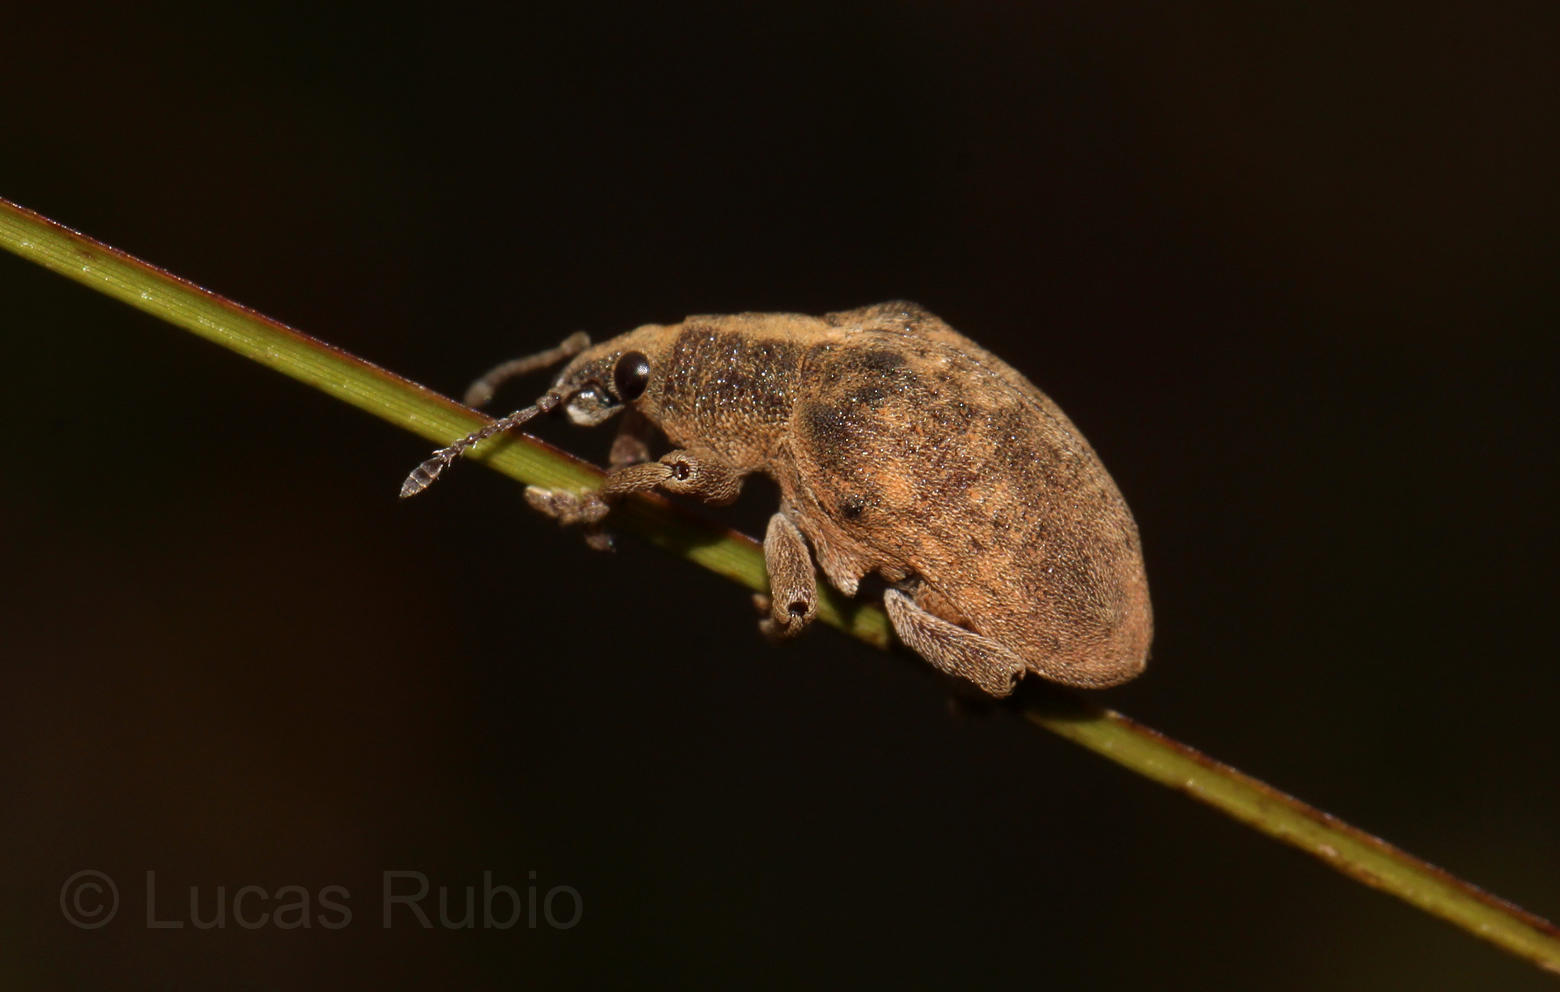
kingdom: Animalia
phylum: Arthropoda
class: Insecta
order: Coleoptera
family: Curculionidae
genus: Gonipterus
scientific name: Gonipterus platensis
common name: Eucalyptus snout beetle
